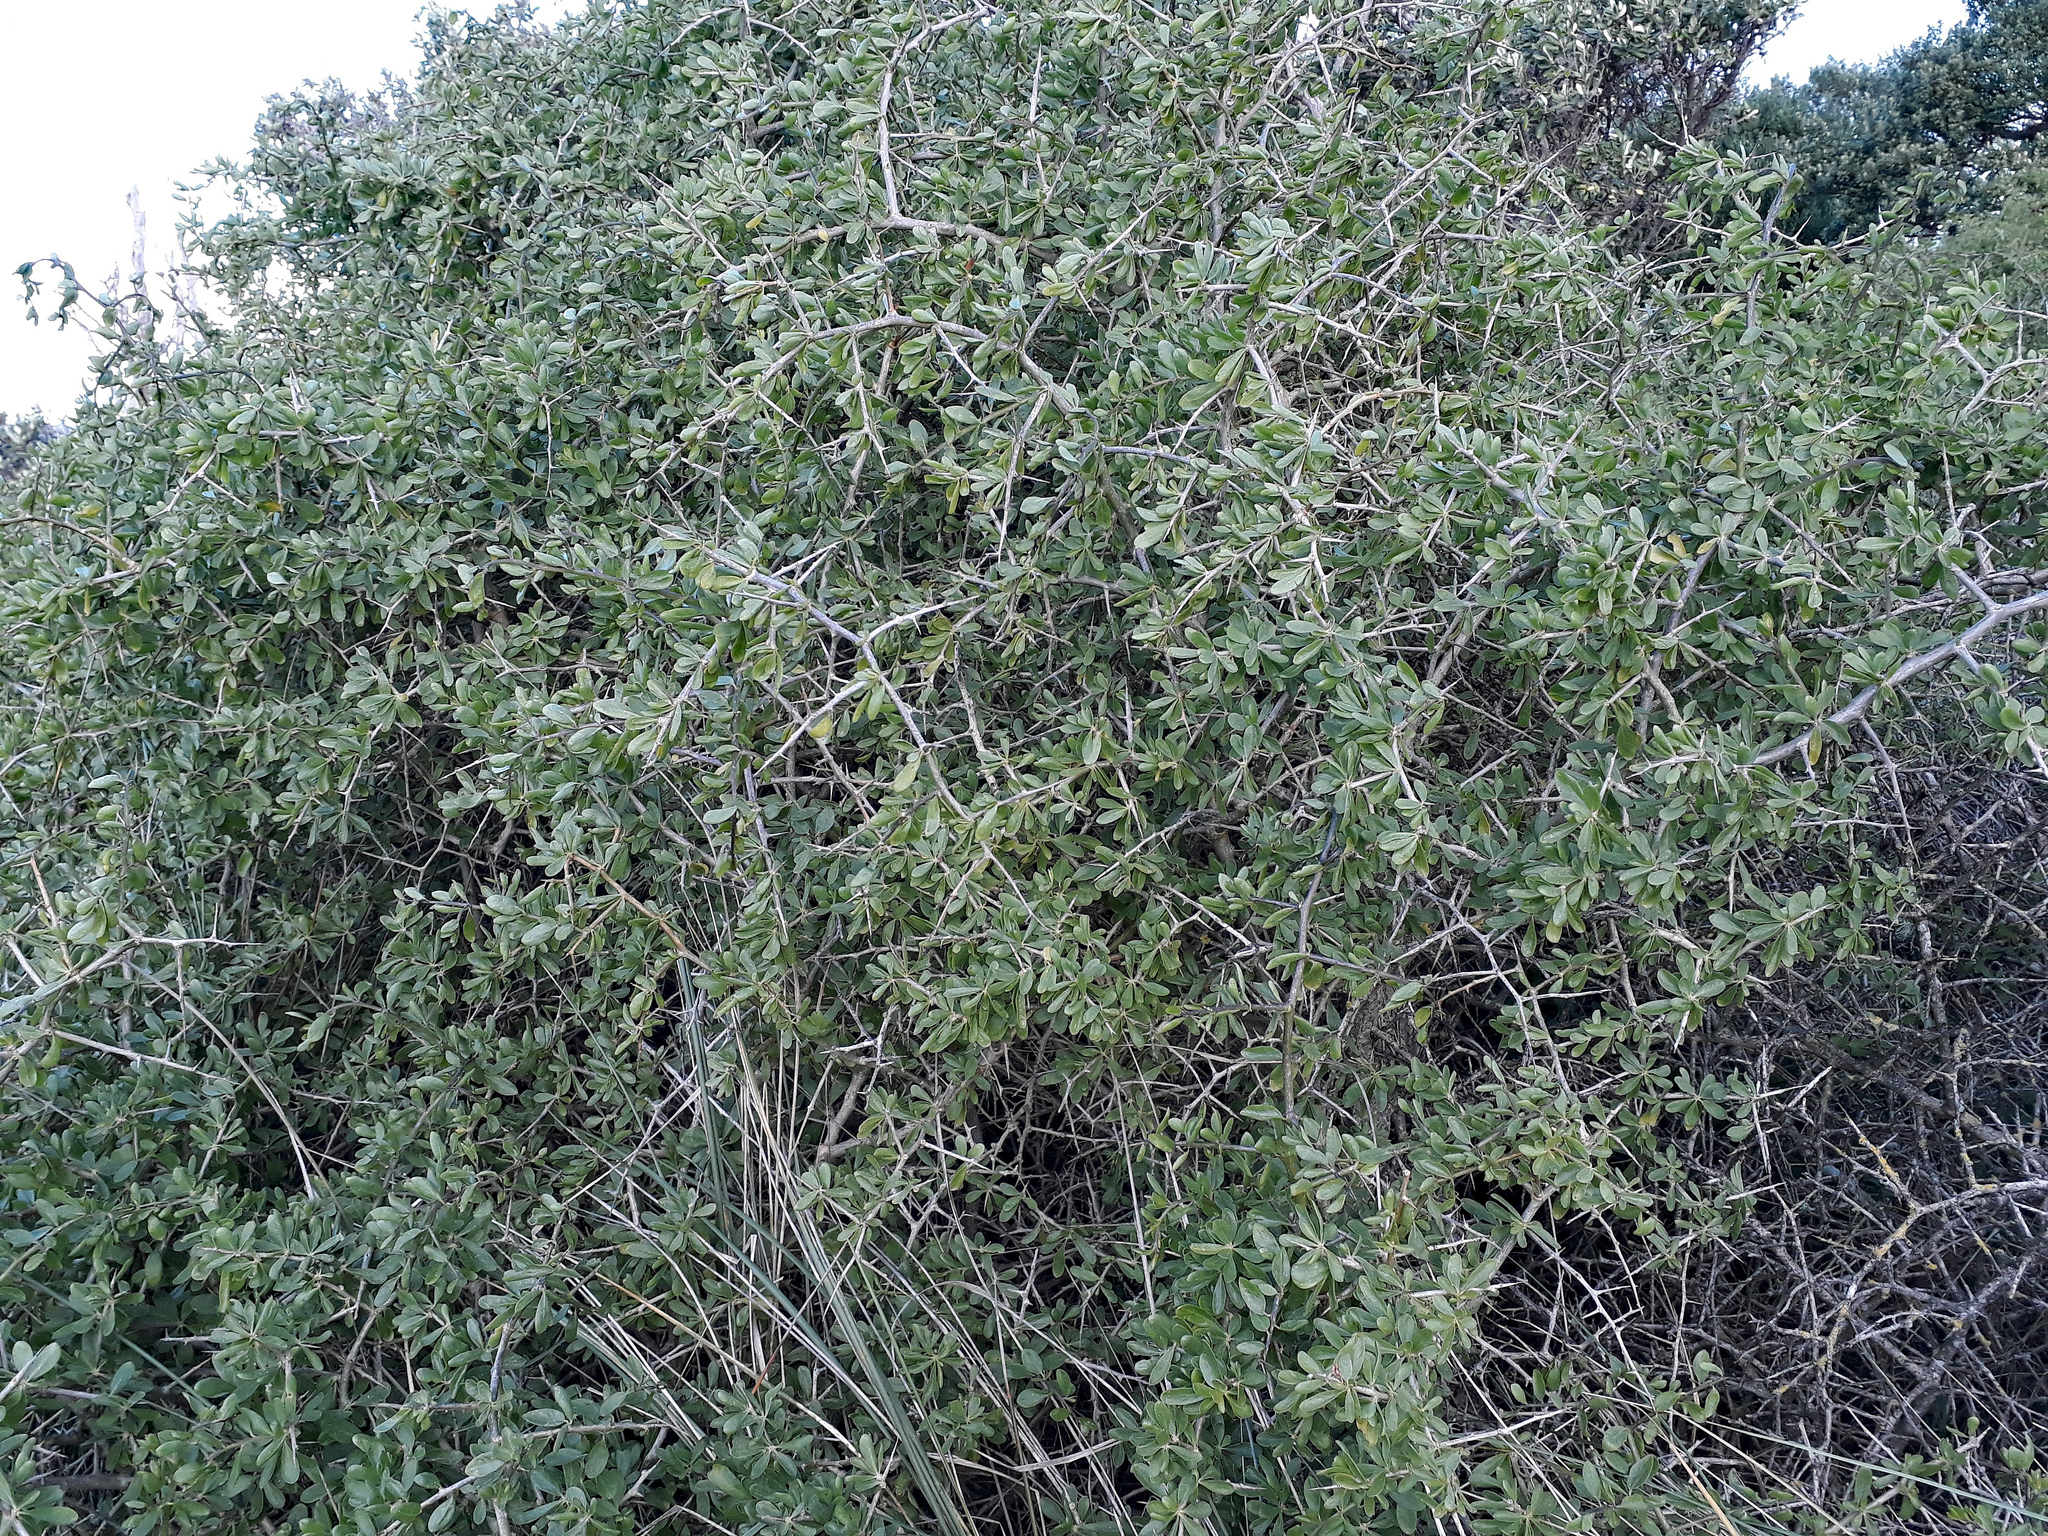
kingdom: Plantae
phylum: Tracheophyta
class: Magnoliopsida
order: Solanales
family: Solanaceae
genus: Lycium
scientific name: Lycium ferocissimum
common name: African boxthorn
